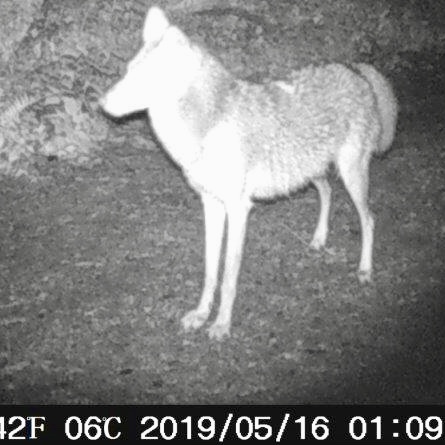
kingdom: Animalia
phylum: Chordata
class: Mammalia
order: Carnivora
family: Canidae
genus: Canis
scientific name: Canis latrans
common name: Coyote
